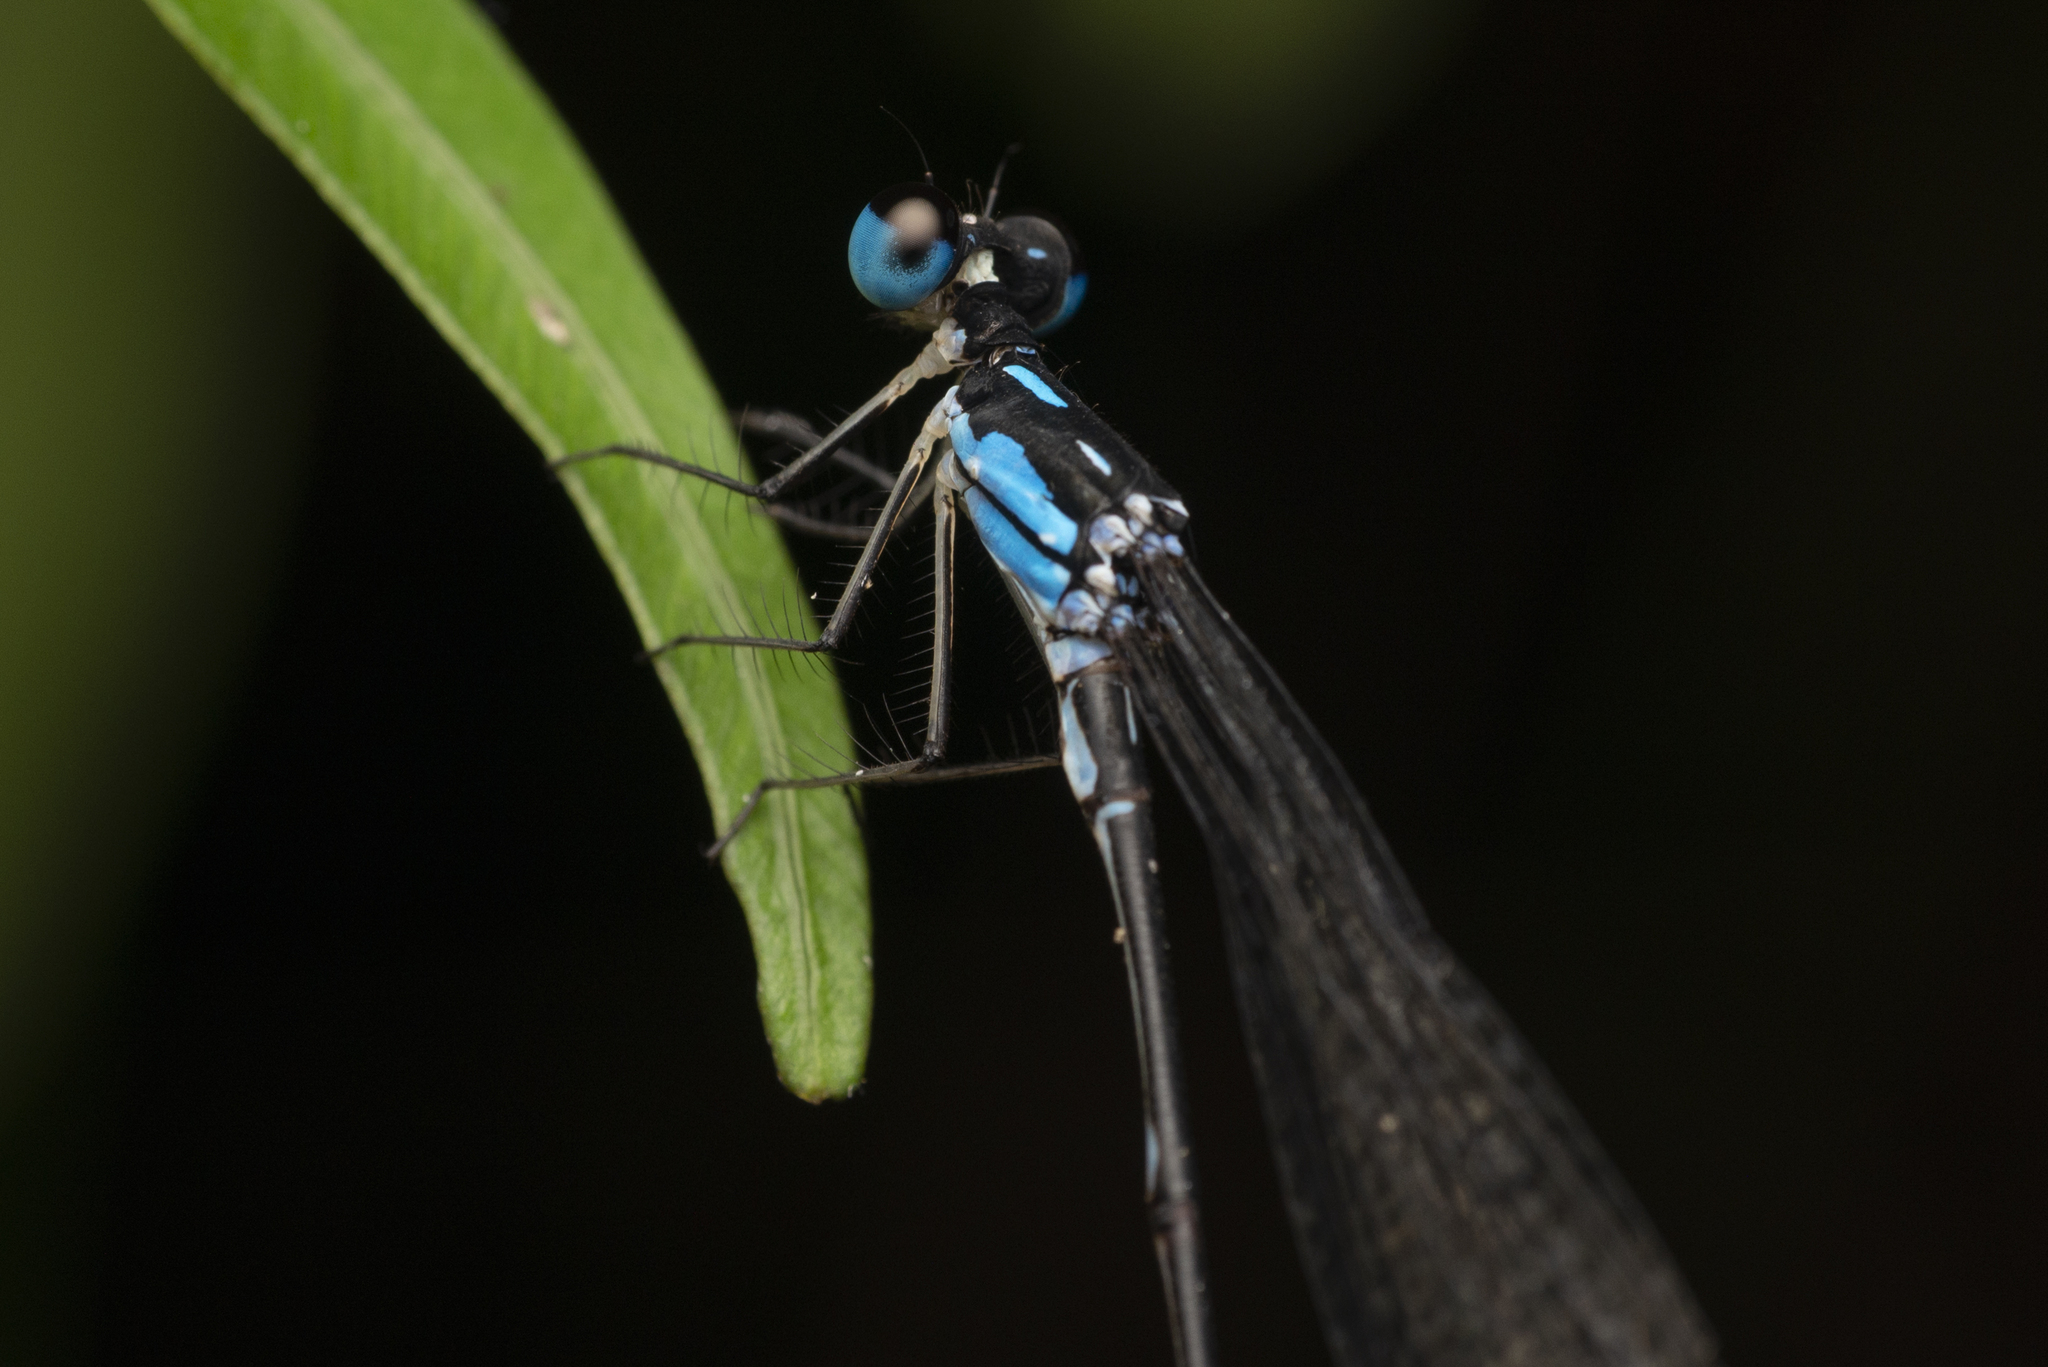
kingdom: Animalia
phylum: Arthropoda
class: Insecta
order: Odonata
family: Platycnemididae
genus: Coeliccia
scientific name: Coeliccia cyanomelas
